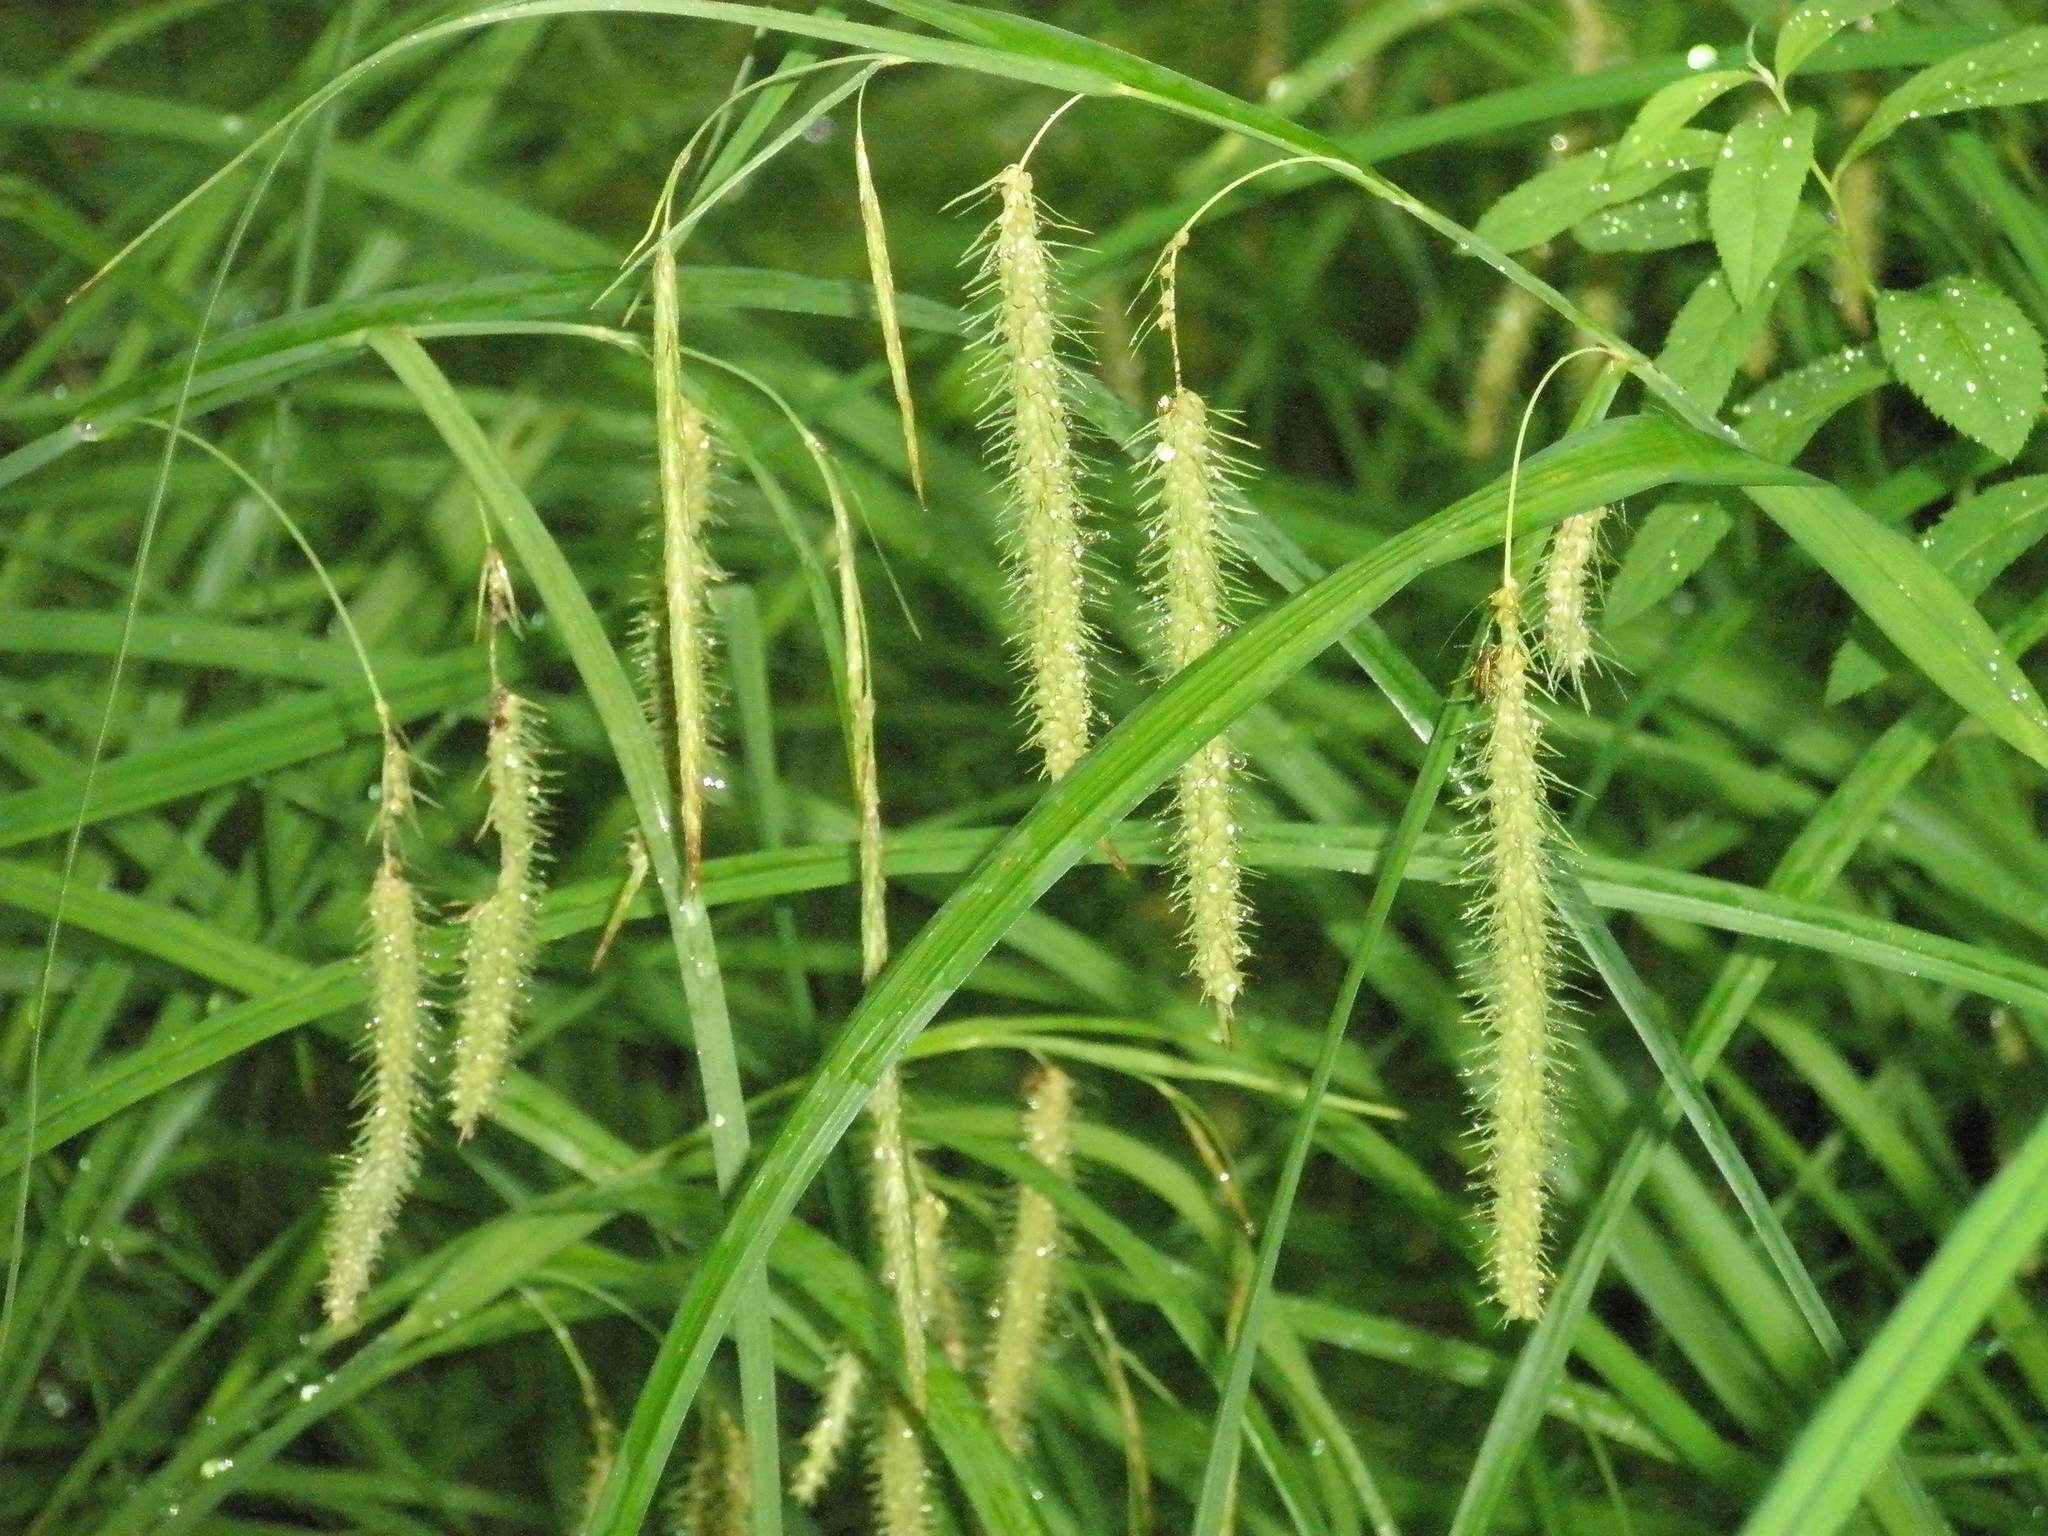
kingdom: Plantae
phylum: Tracheophyta
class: Liliopsida
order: Poales
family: Cyperaceae
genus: Carex
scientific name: Carex crinita
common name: Fringed sedge
